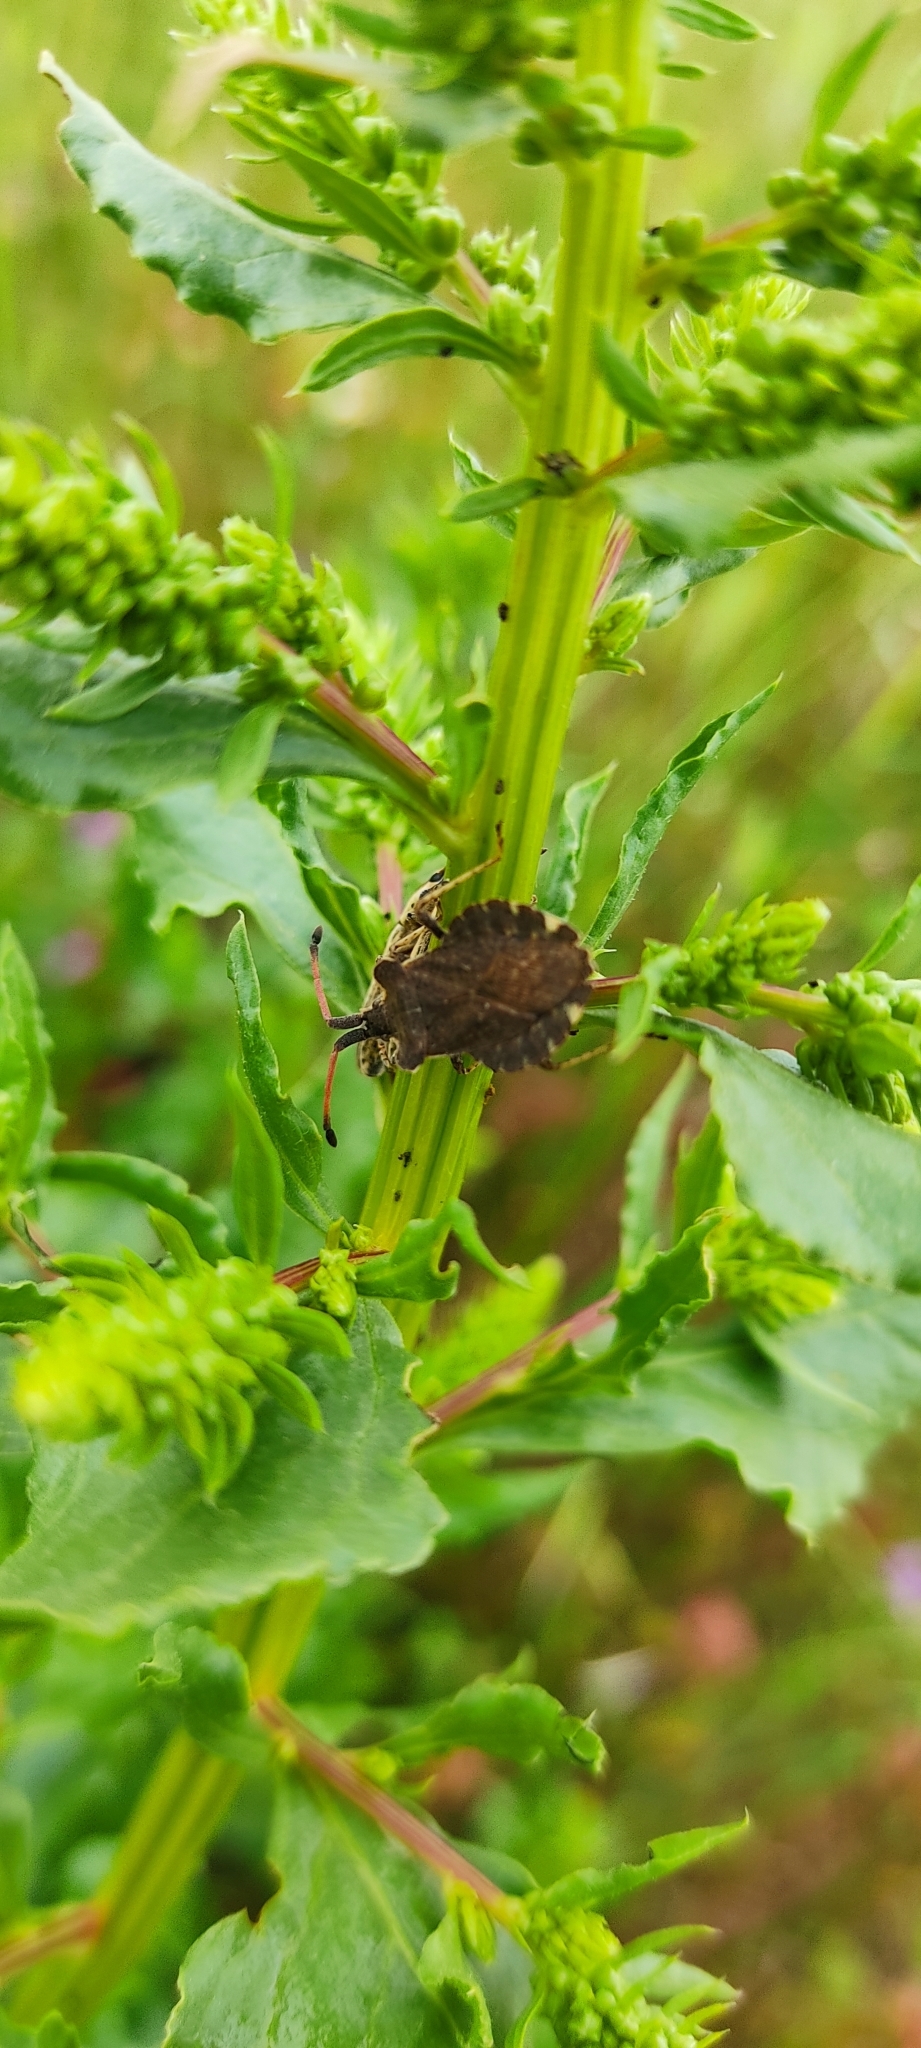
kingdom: Animalia
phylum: Arthropoda
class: Insecta
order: Hemiptera
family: Coreidae
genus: Enoplops
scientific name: Enoplops scapha
